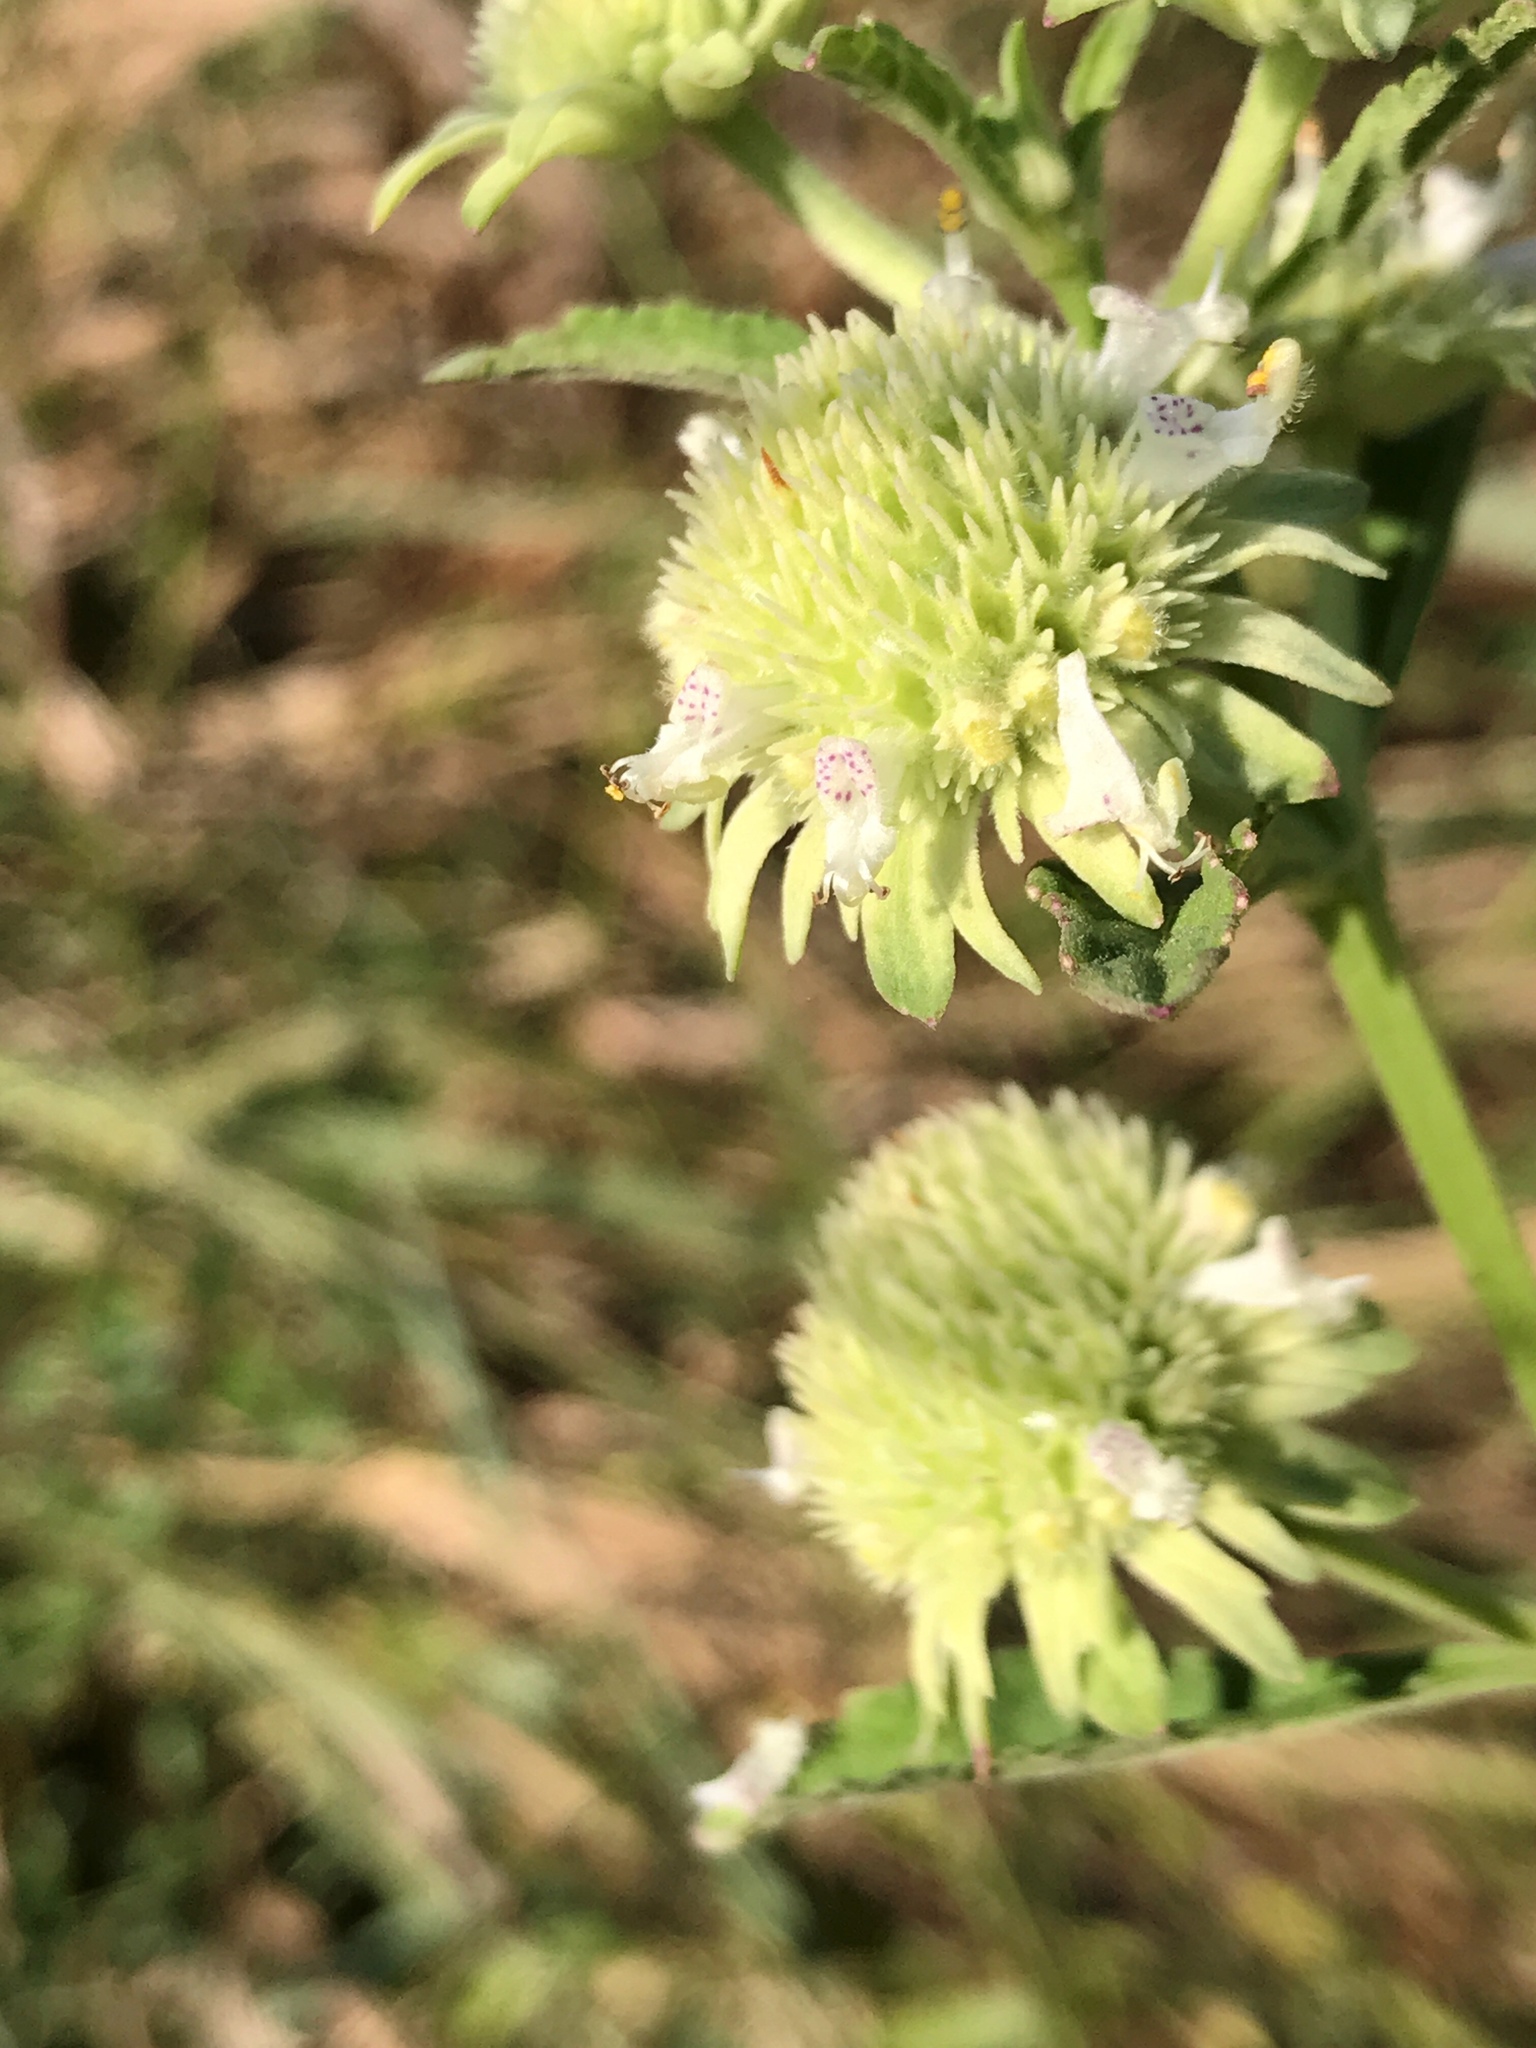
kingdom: Plantae
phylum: Tracheophyta
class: Magnoliopsida
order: Lamiales
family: Lamiaceae
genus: Hyptis
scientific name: Hyptis alata
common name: Cluster bush-mint
